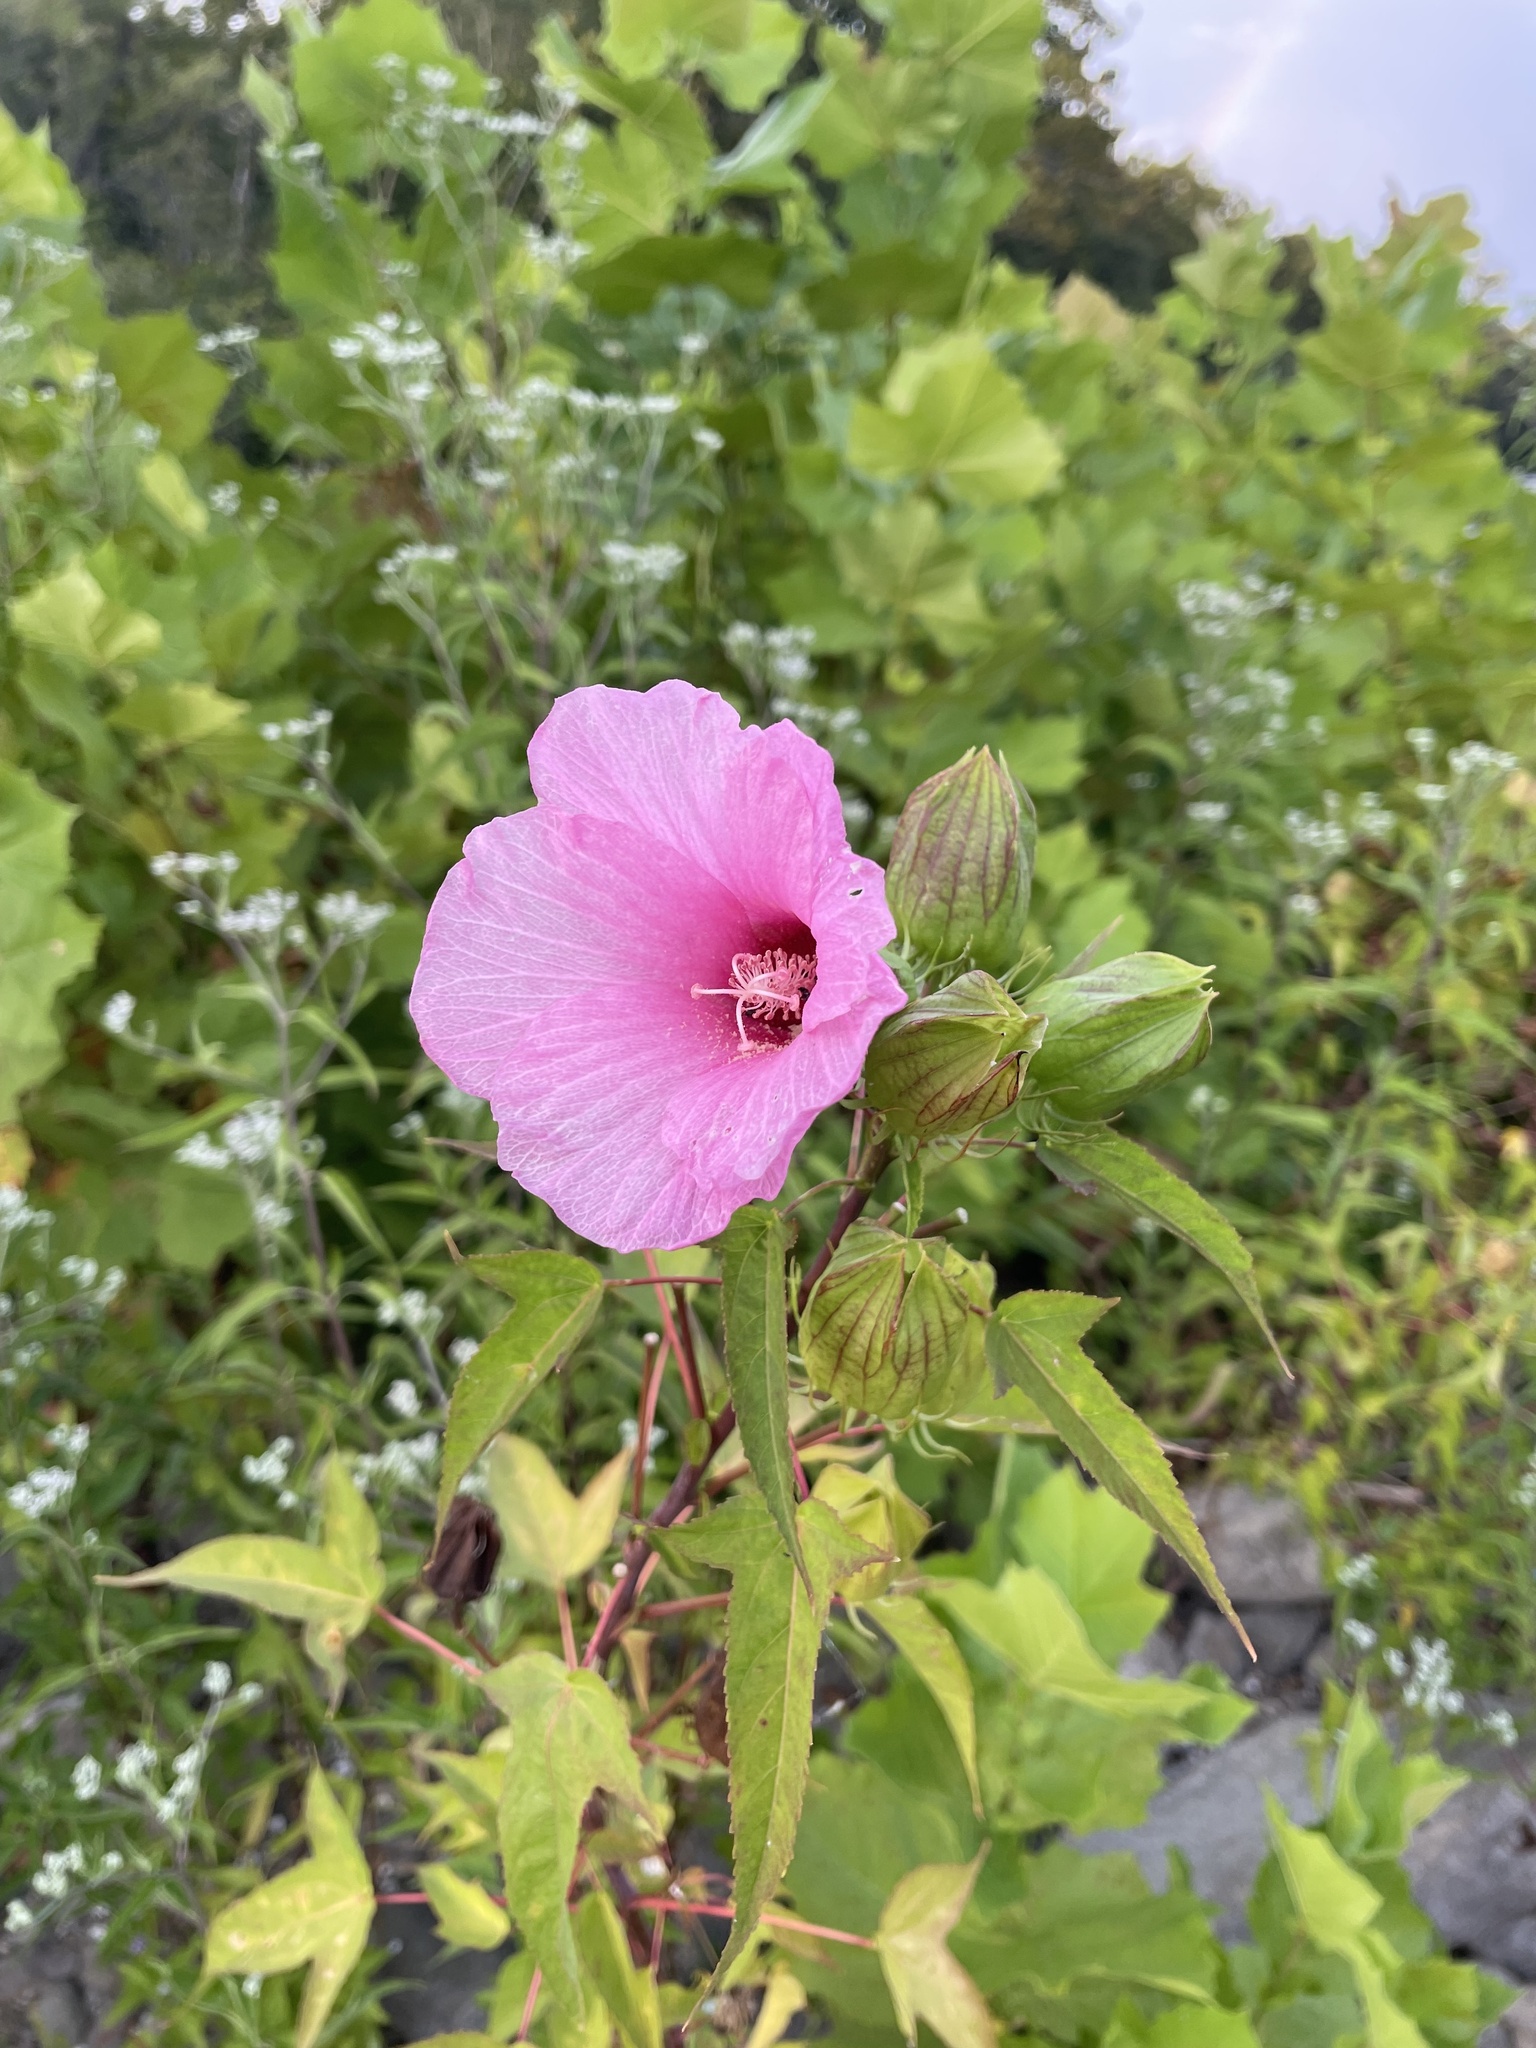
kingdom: Plantae
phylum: Tracheophyta
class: Magnoliopsida
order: Malvales
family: Malvaceae
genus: Hibiscus
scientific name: Hibiscus laevis
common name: Scarlet rose-mallow
